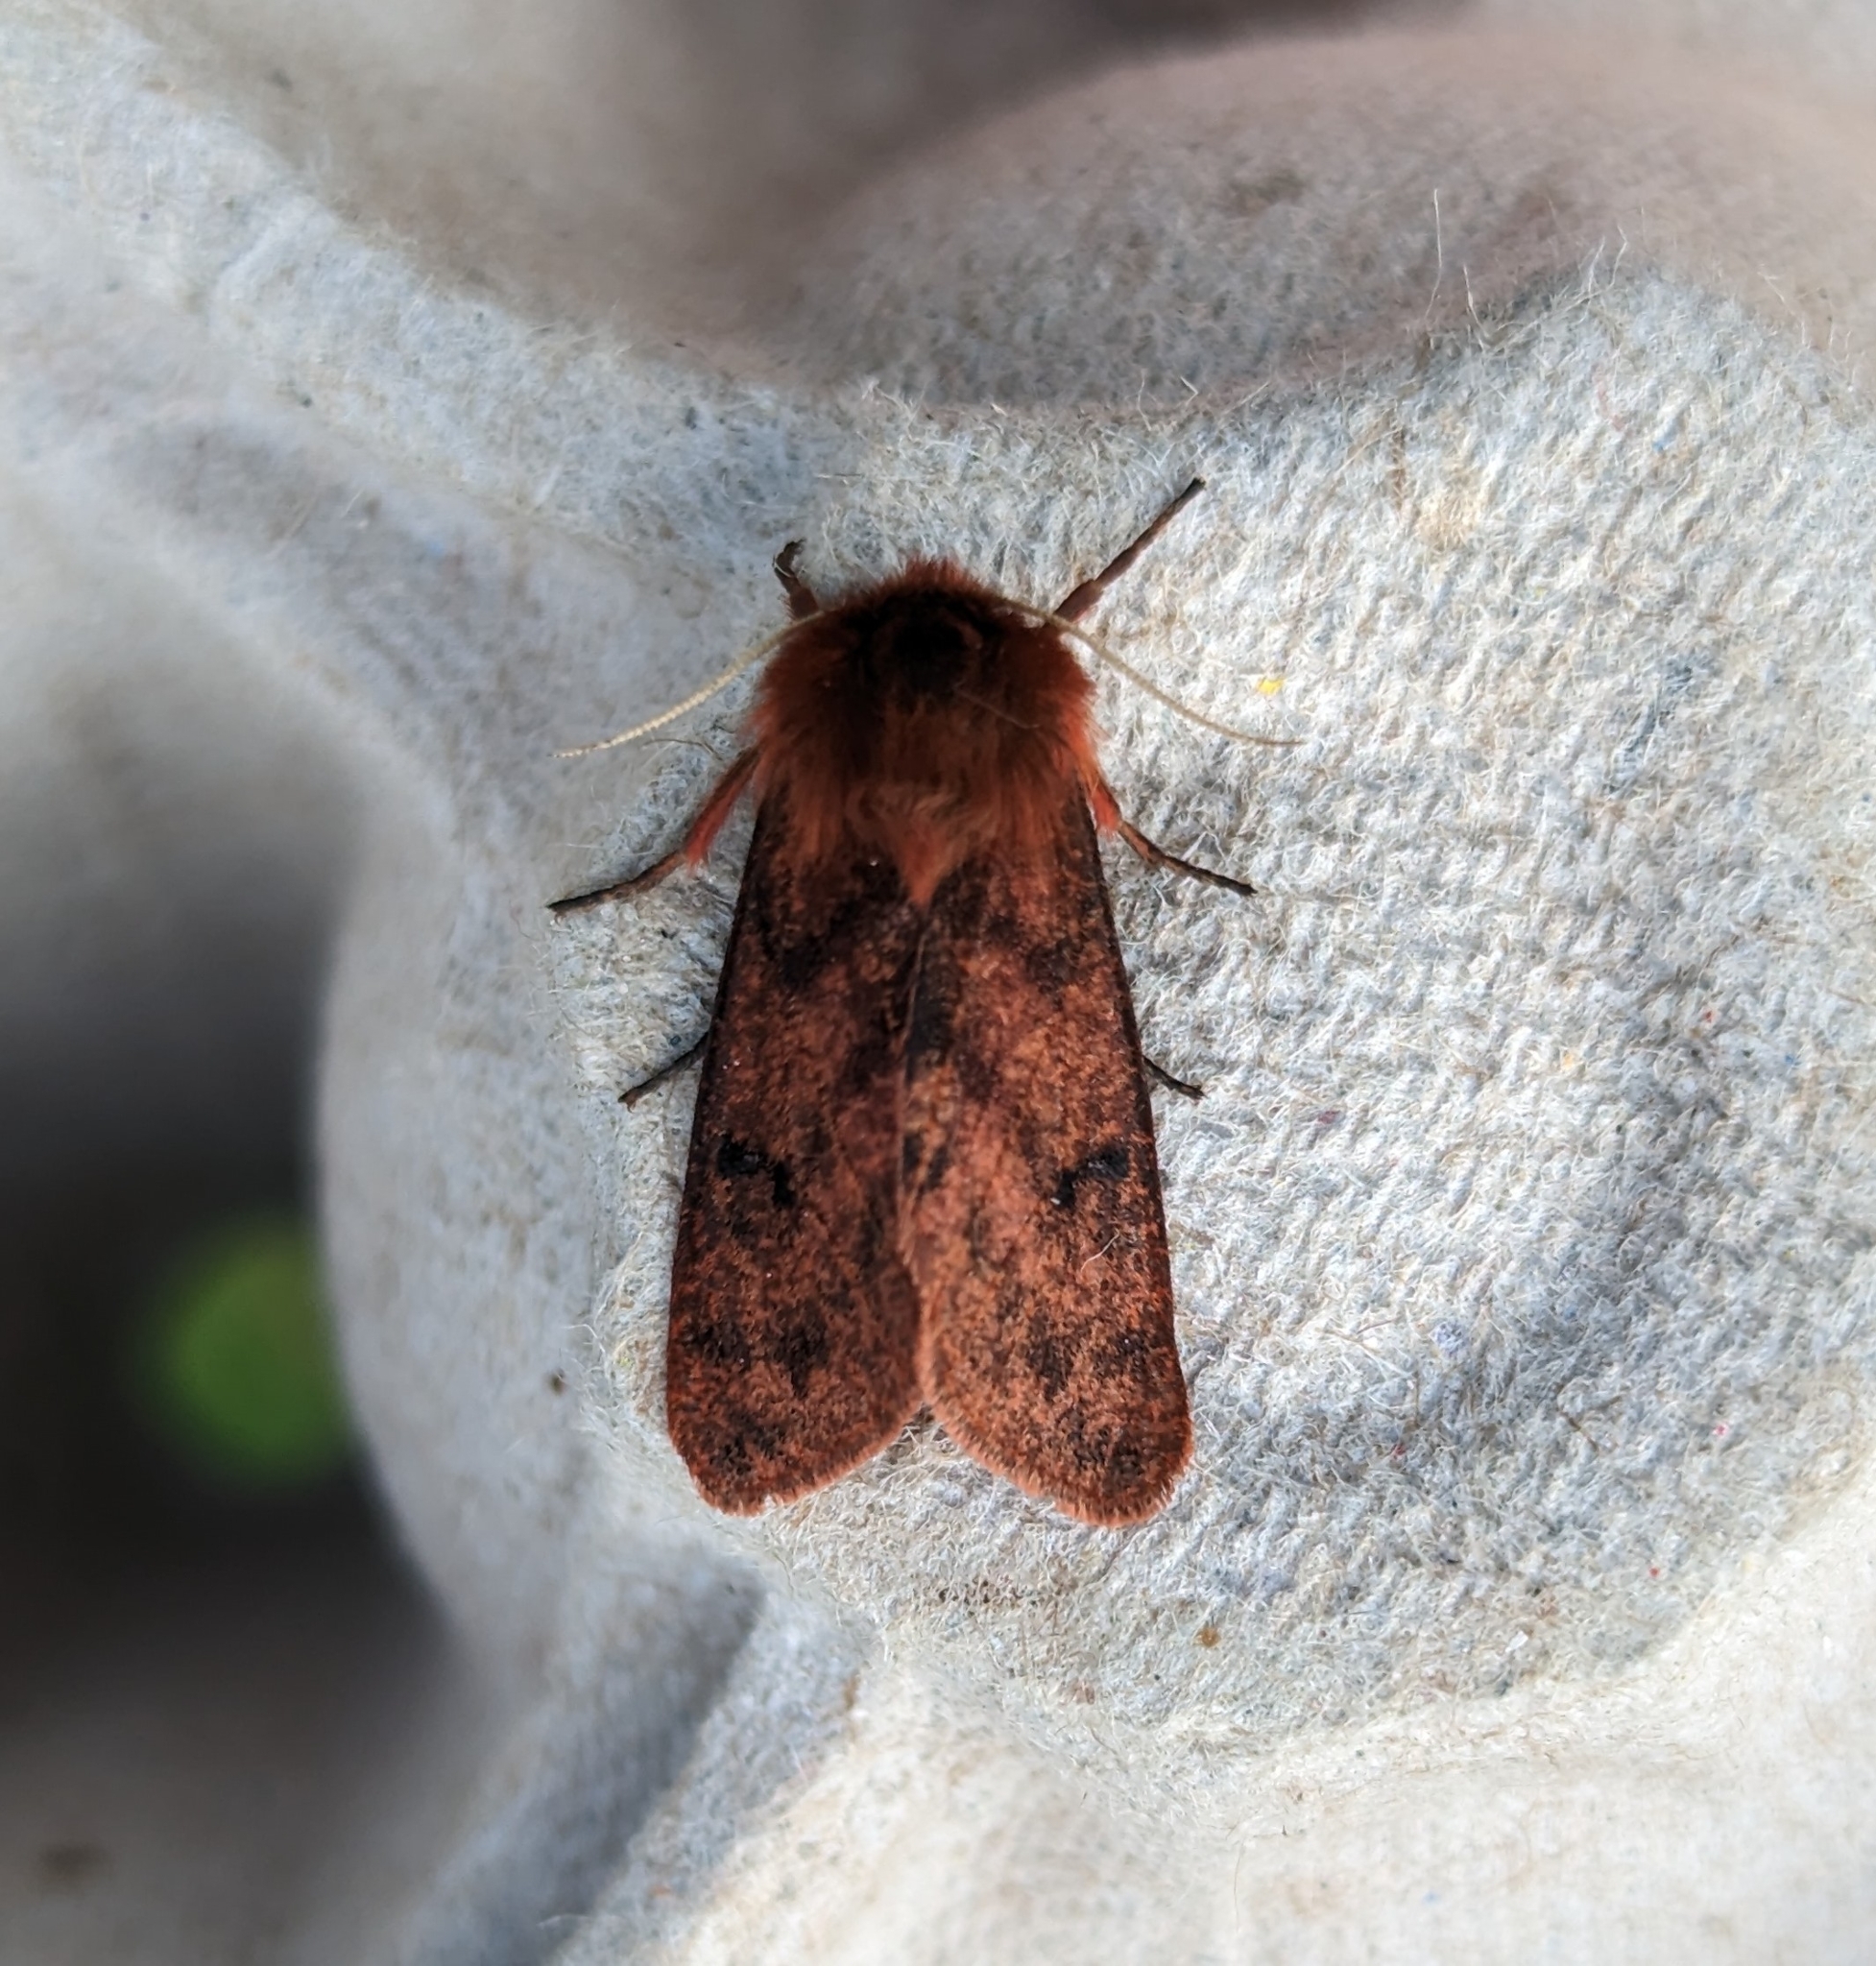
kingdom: Animalia
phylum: Arthropoda
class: Insecta
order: Lepidoptera
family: Erebidae
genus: Phragmatobia
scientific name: Phragmatobia assimilans
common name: Large ruby tiger moth
